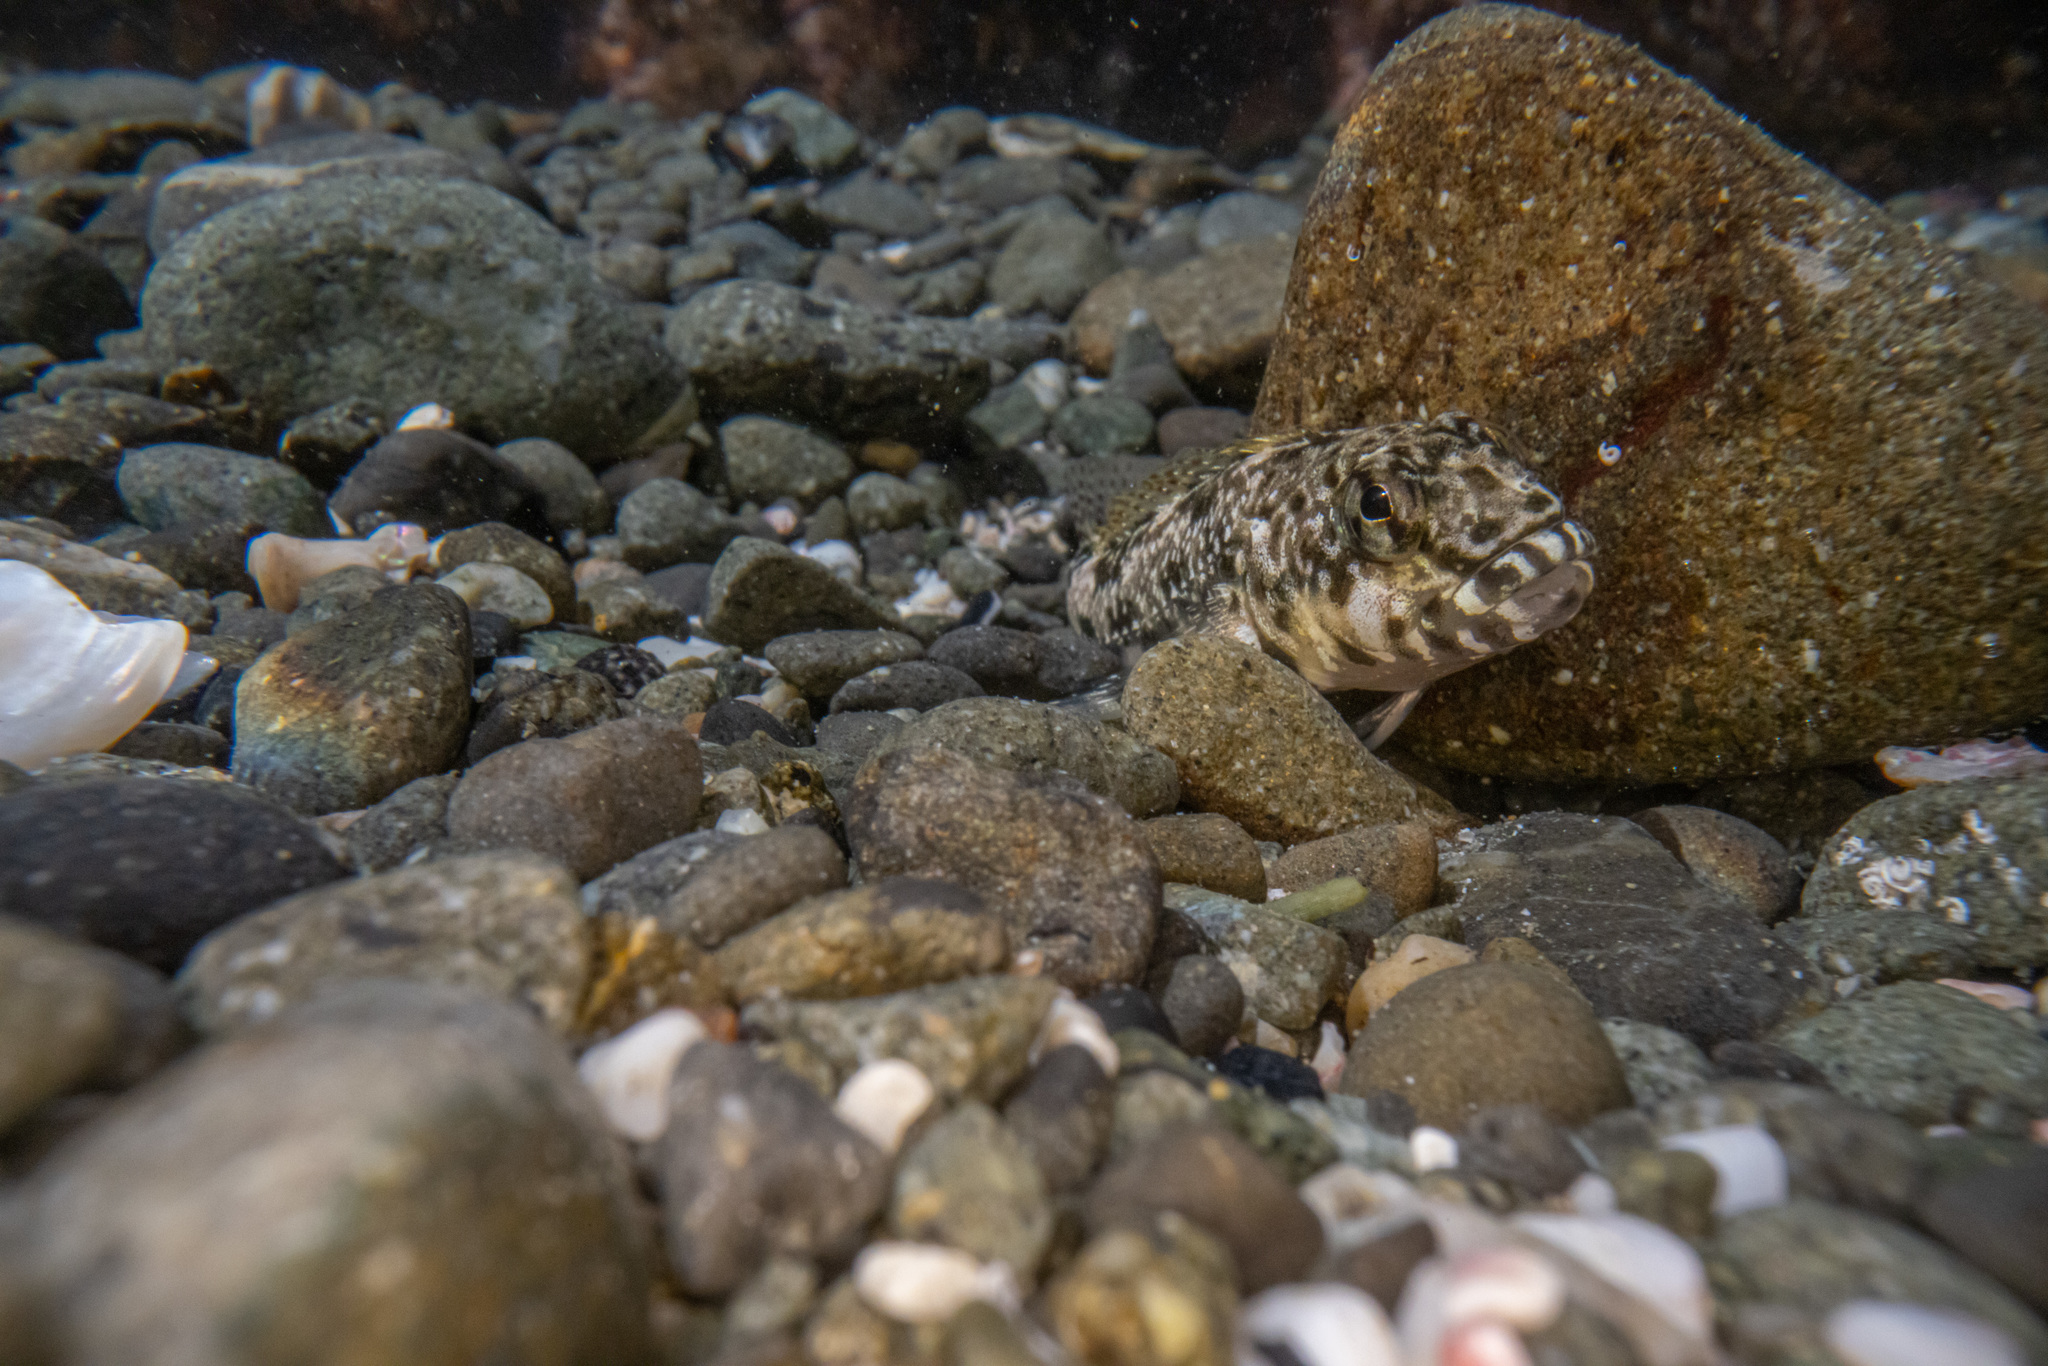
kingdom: Animalia
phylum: Chordata
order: Perciformes
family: Tripterygiidae
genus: Bellapiscis
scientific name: Bellapiscis medius
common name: Twister
